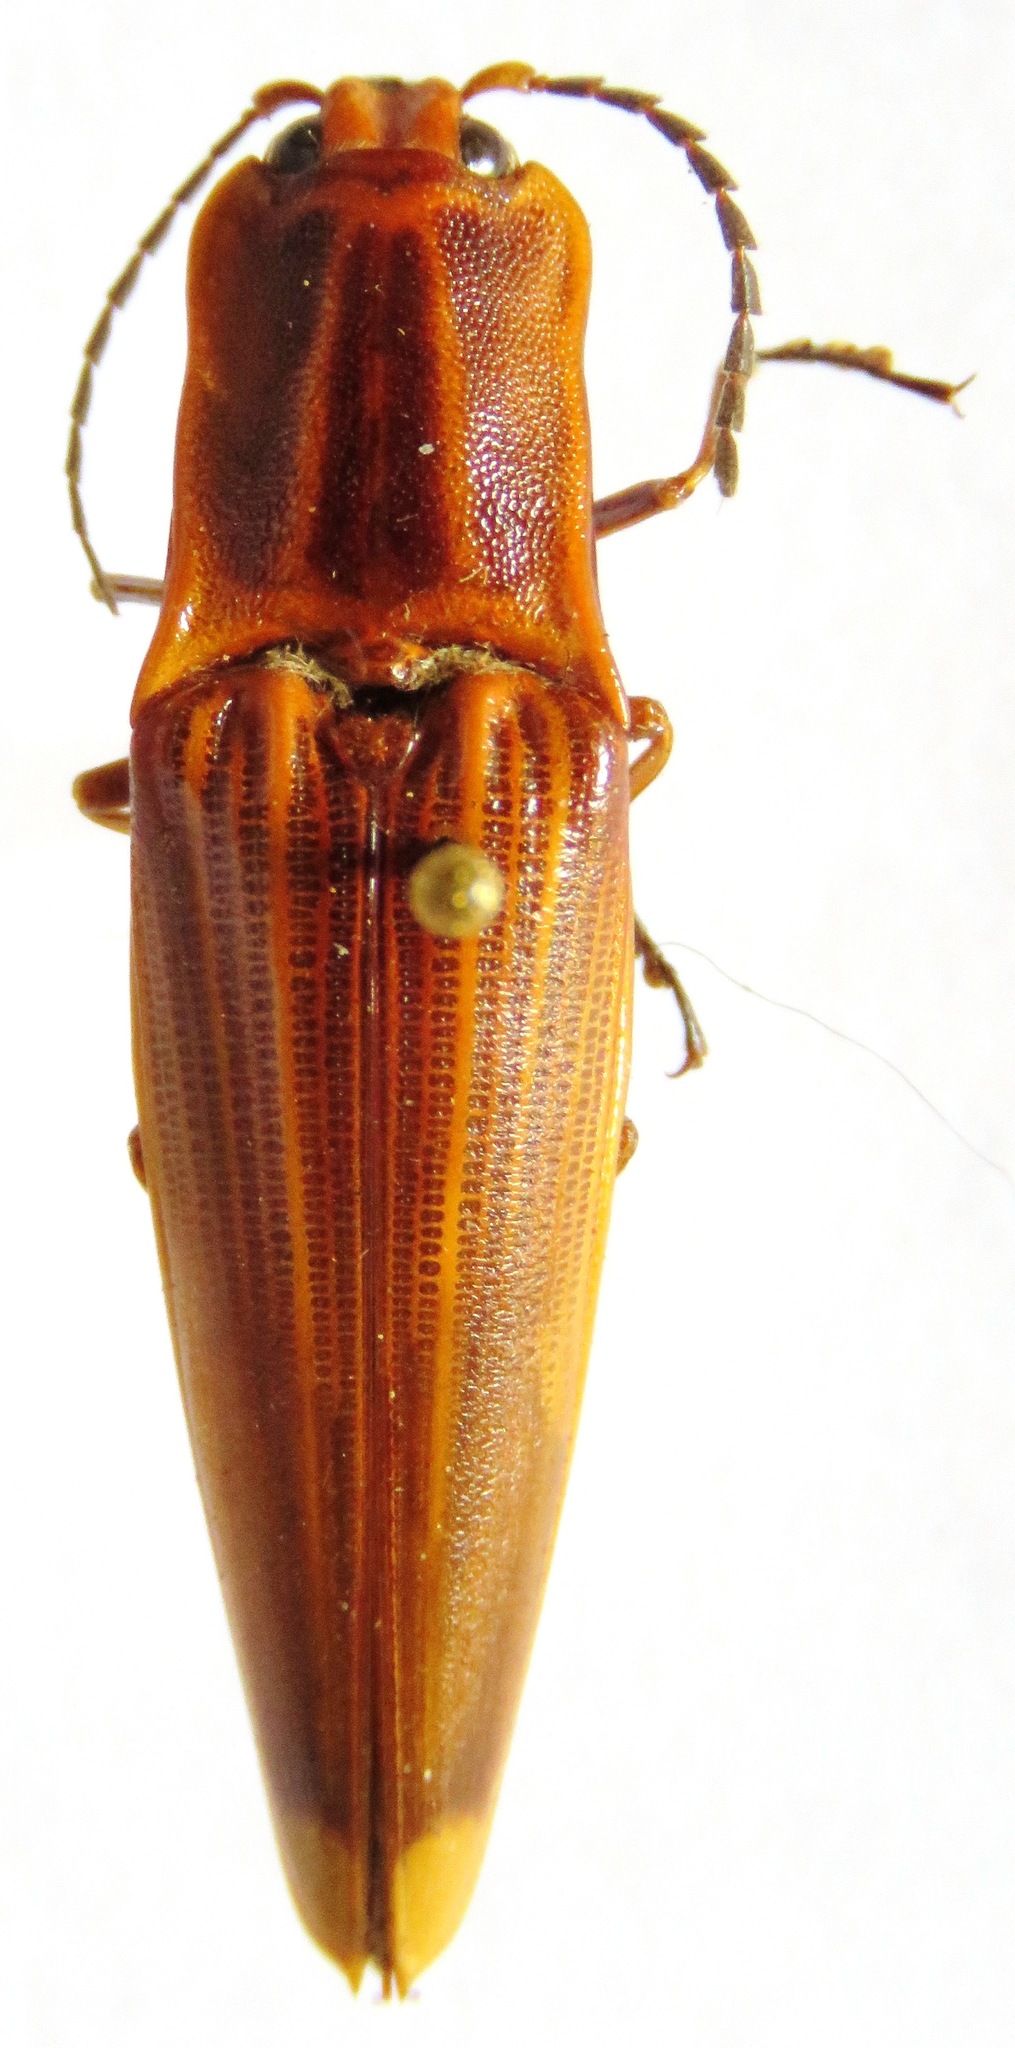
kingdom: Animalia
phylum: Arthropoda
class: Insecta
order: Coleoptera
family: Elateridae
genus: Semiotus
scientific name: Semiotus ligneus
